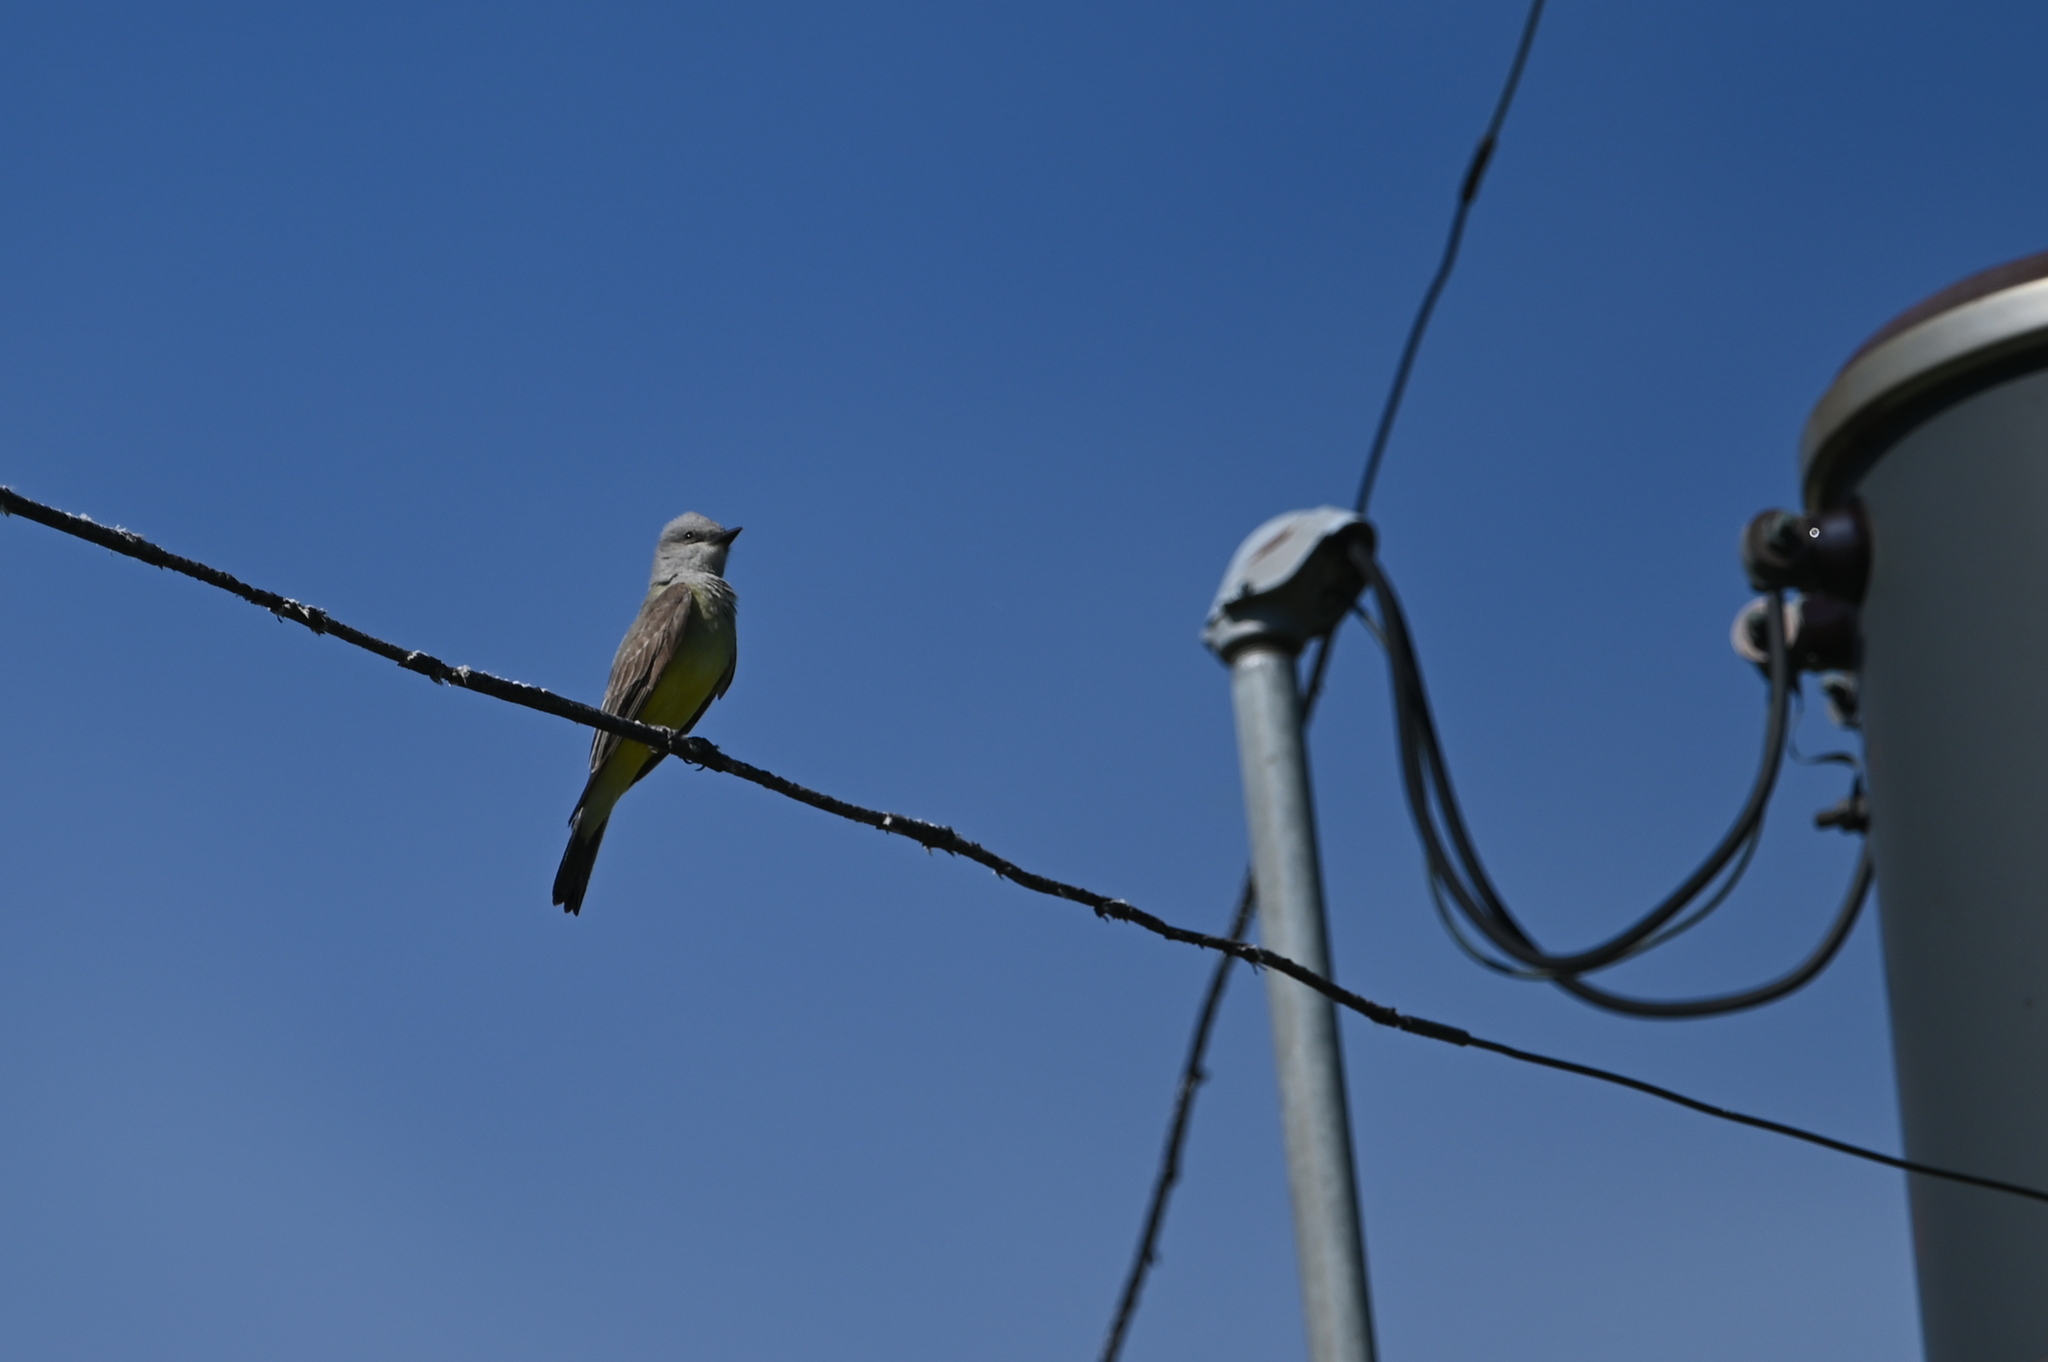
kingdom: Animalia
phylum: Chordata
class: Aves
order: Passeriformes
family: Tyrannidae
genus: Tyrannus
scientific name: Tyrannus verticalis
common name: Western kingbird
